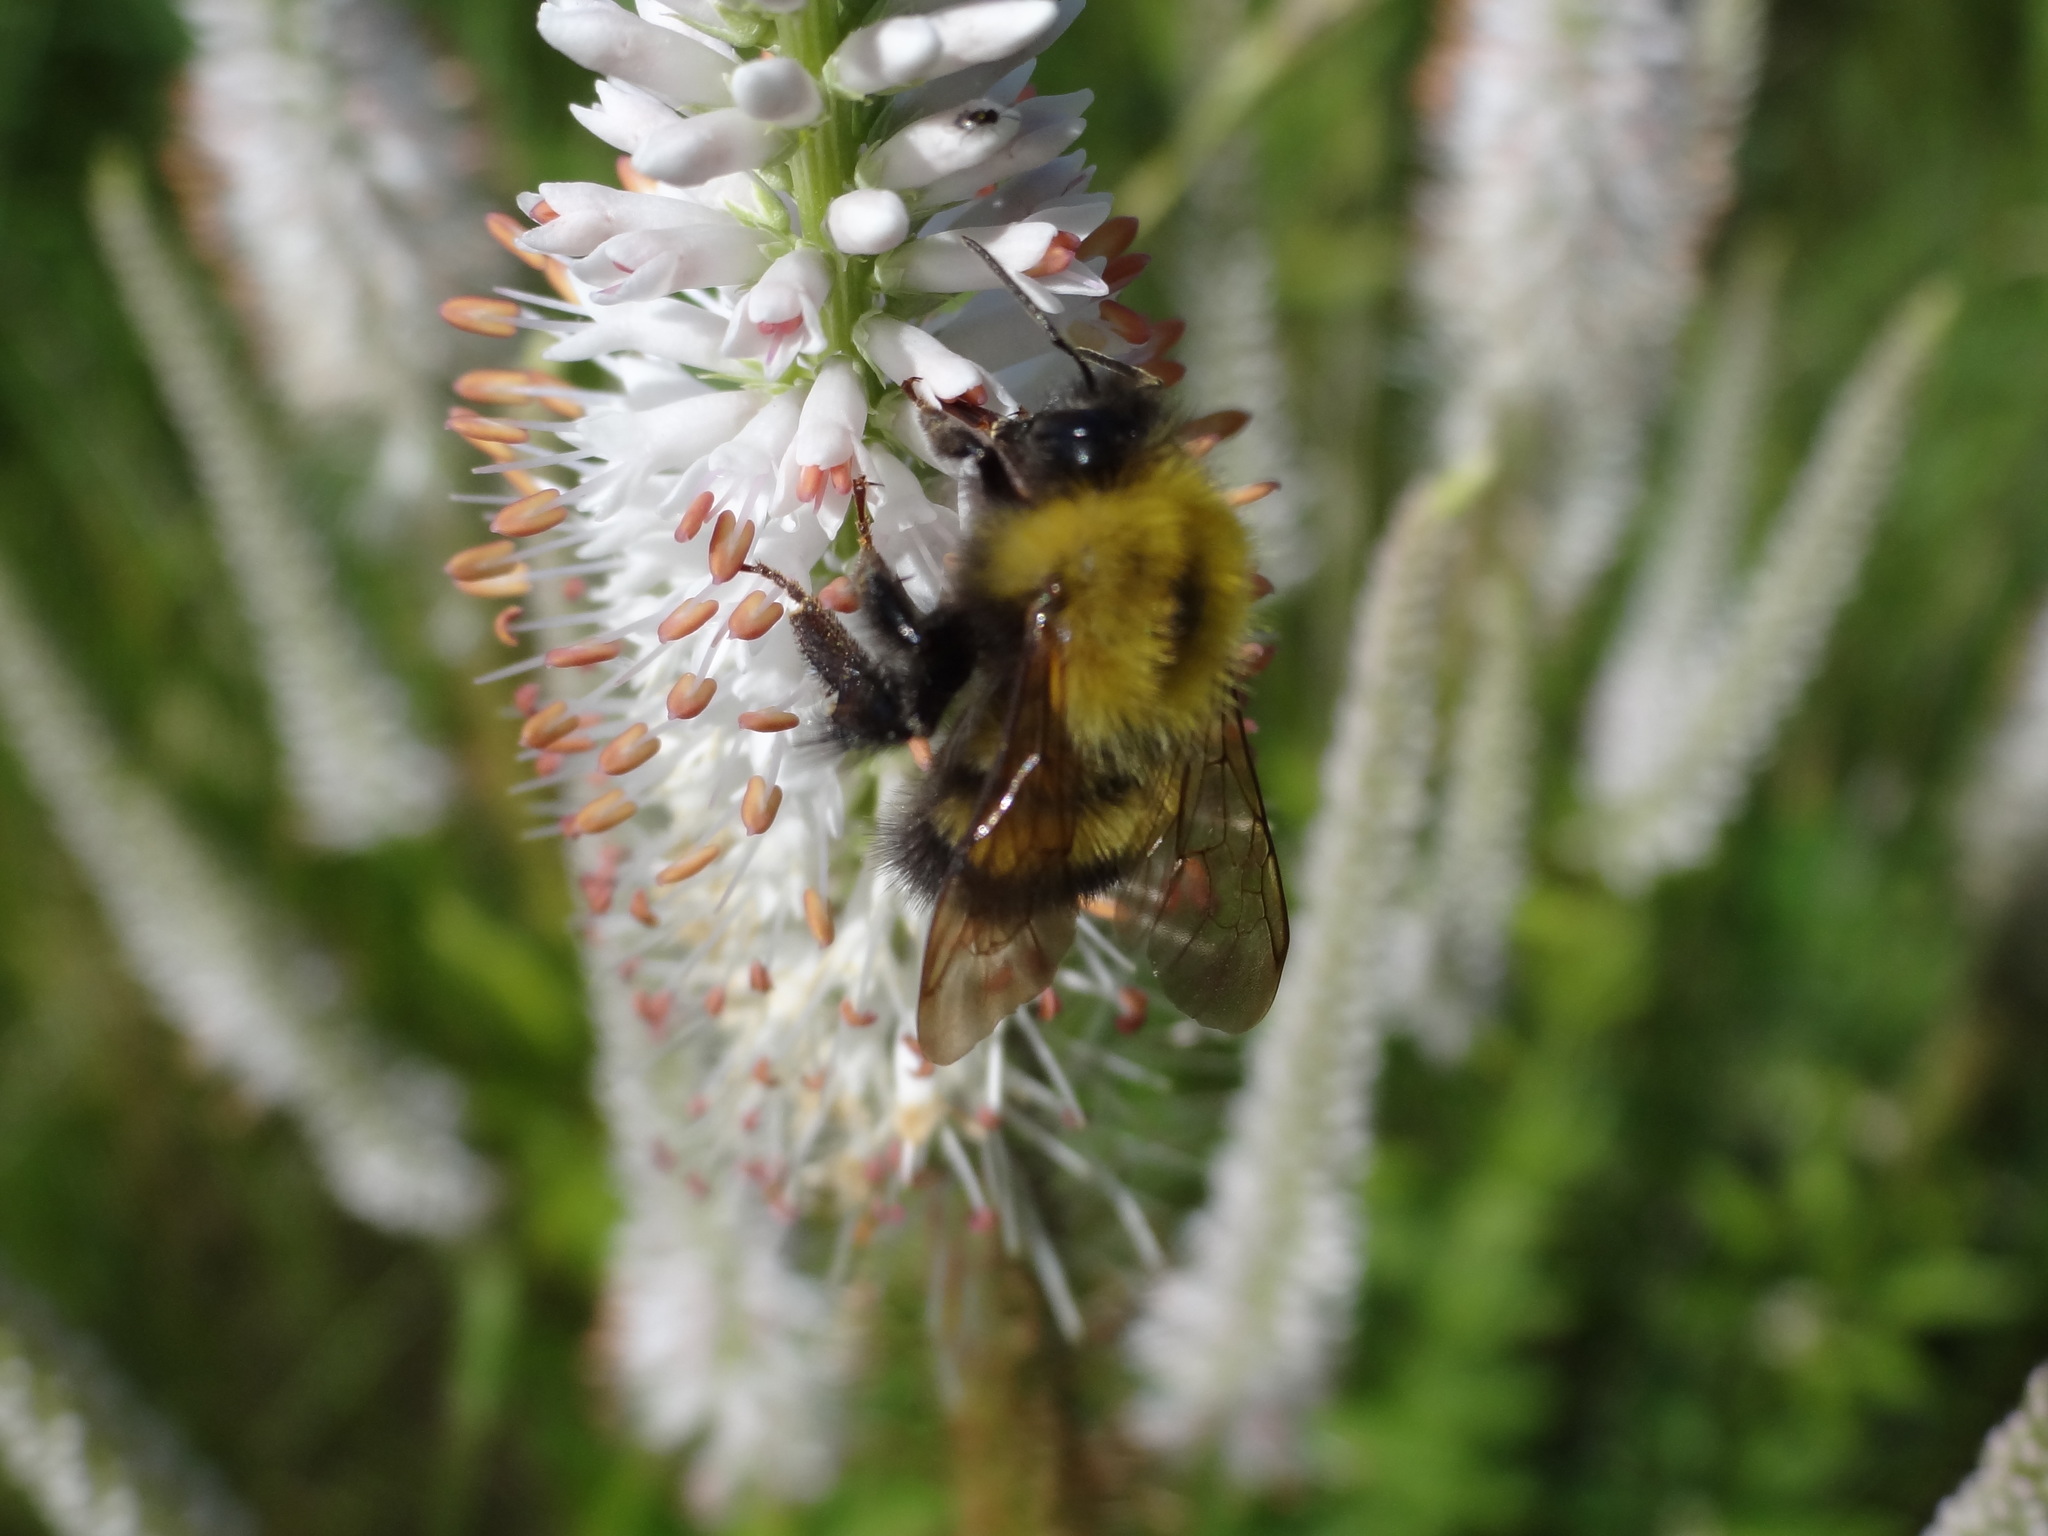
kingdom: Animalia
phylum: Arthropoda
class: Insecta
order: Hymenoptera
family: Apidae
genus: Bombus
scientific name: Bombus perplexus
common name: Confusing bumble bee
